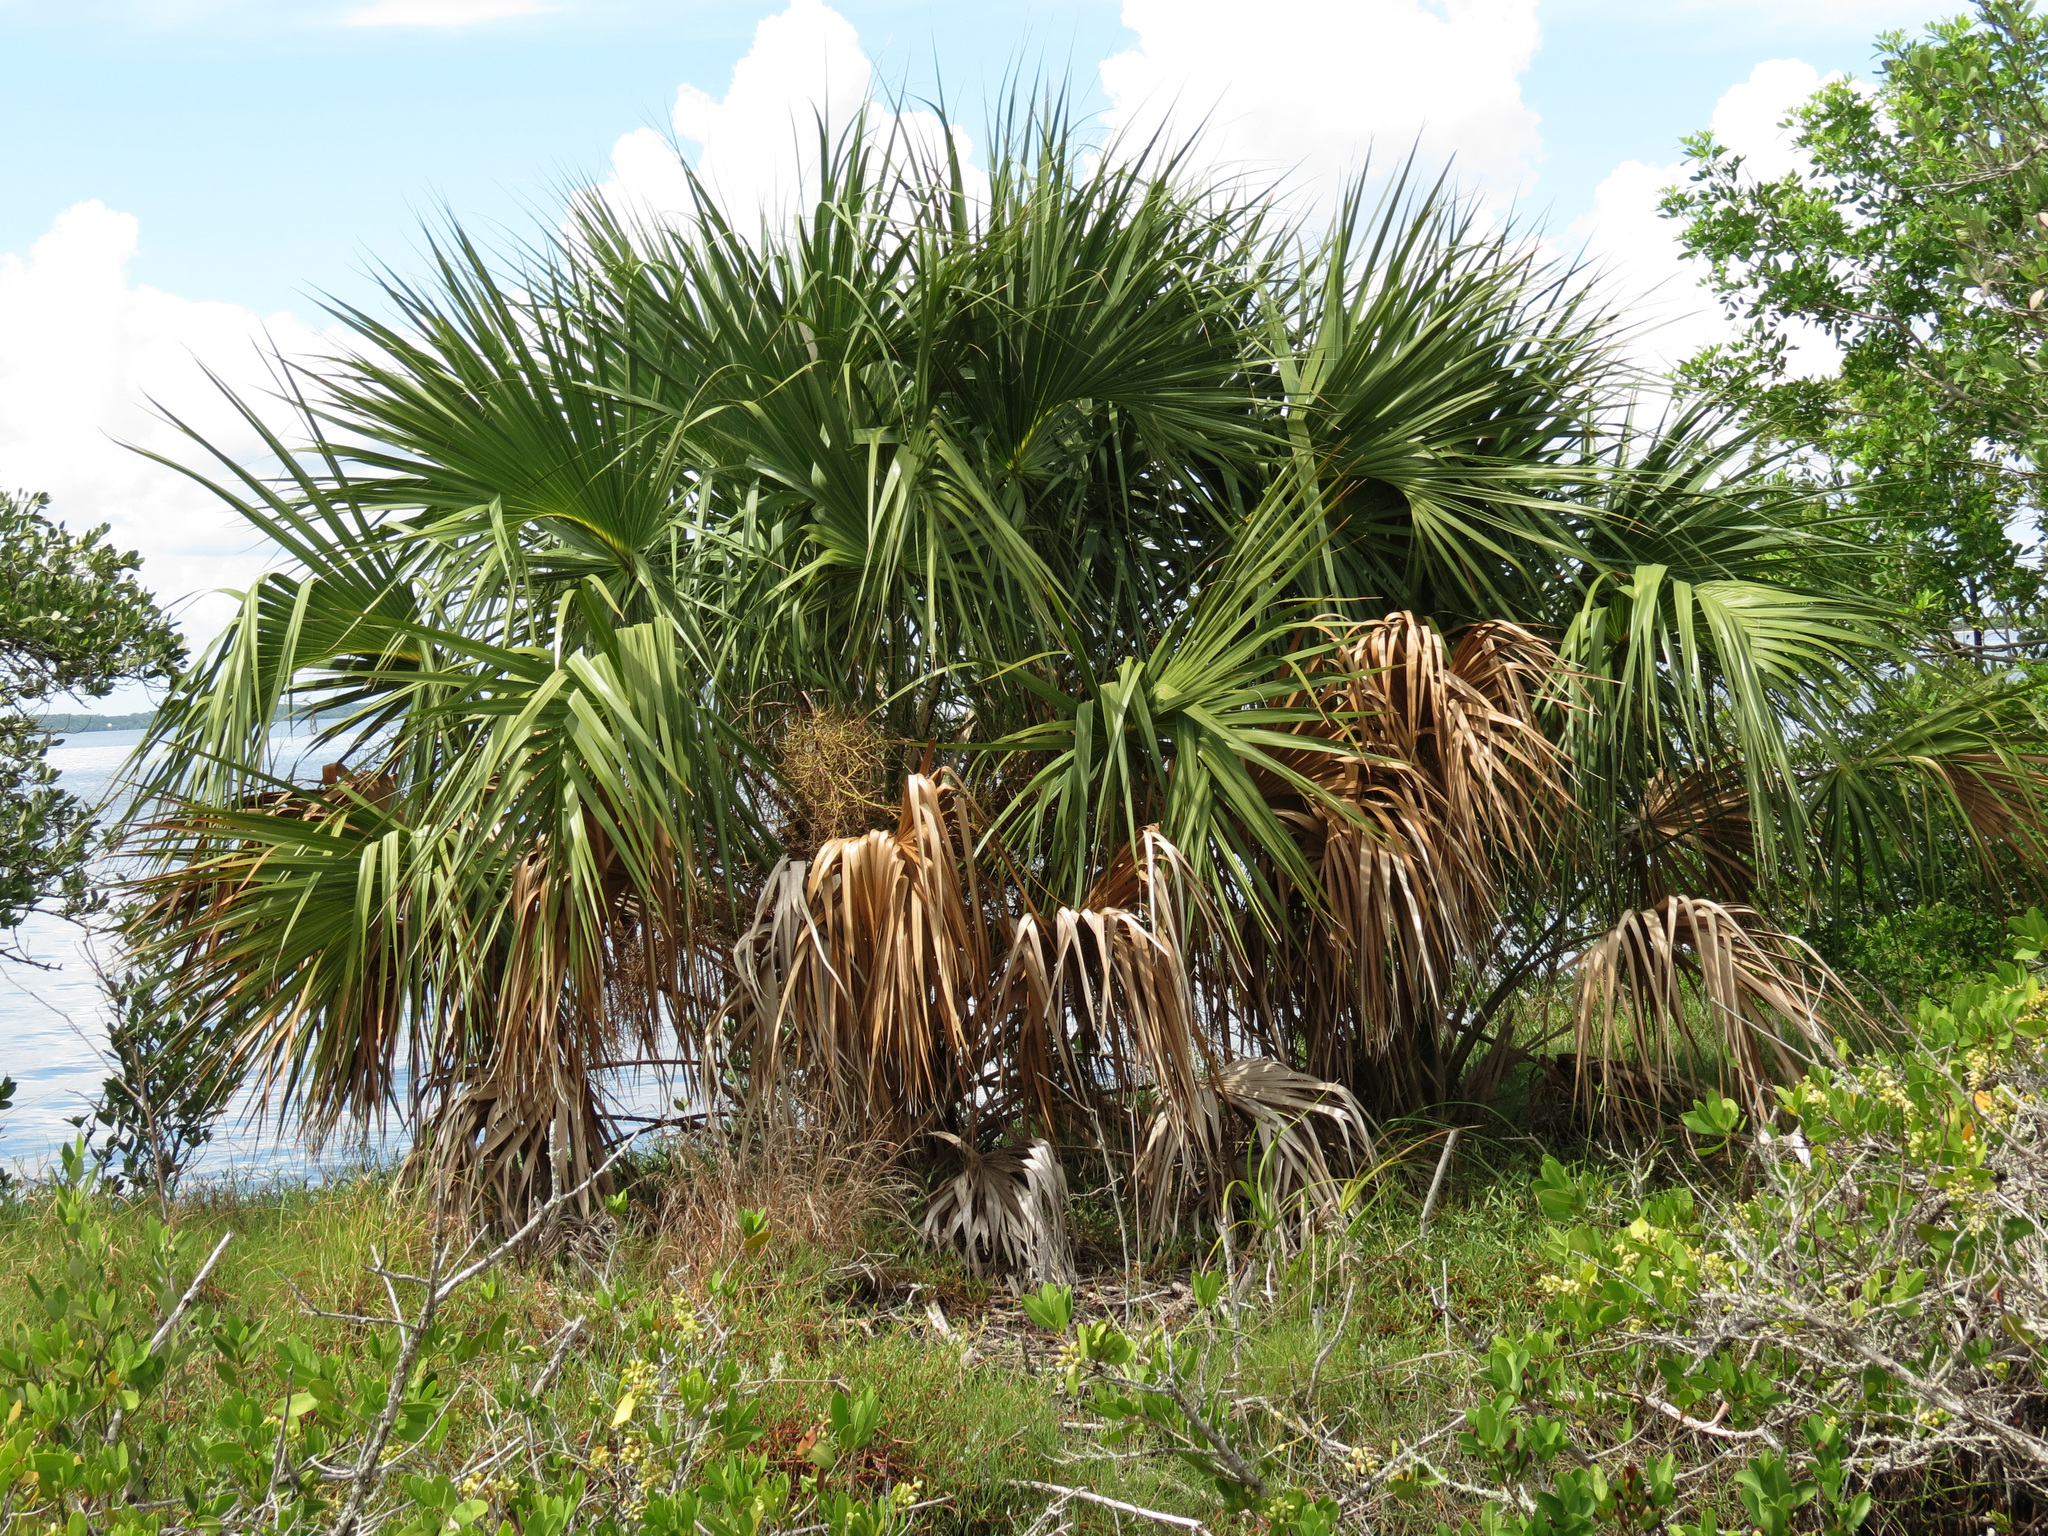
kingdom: Plantae
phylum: Tracheophyta
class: Liliopsida
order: Arecales
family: Arecaceae
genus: Sabal
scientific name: Sabal palmetto
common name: Blue palmetto
